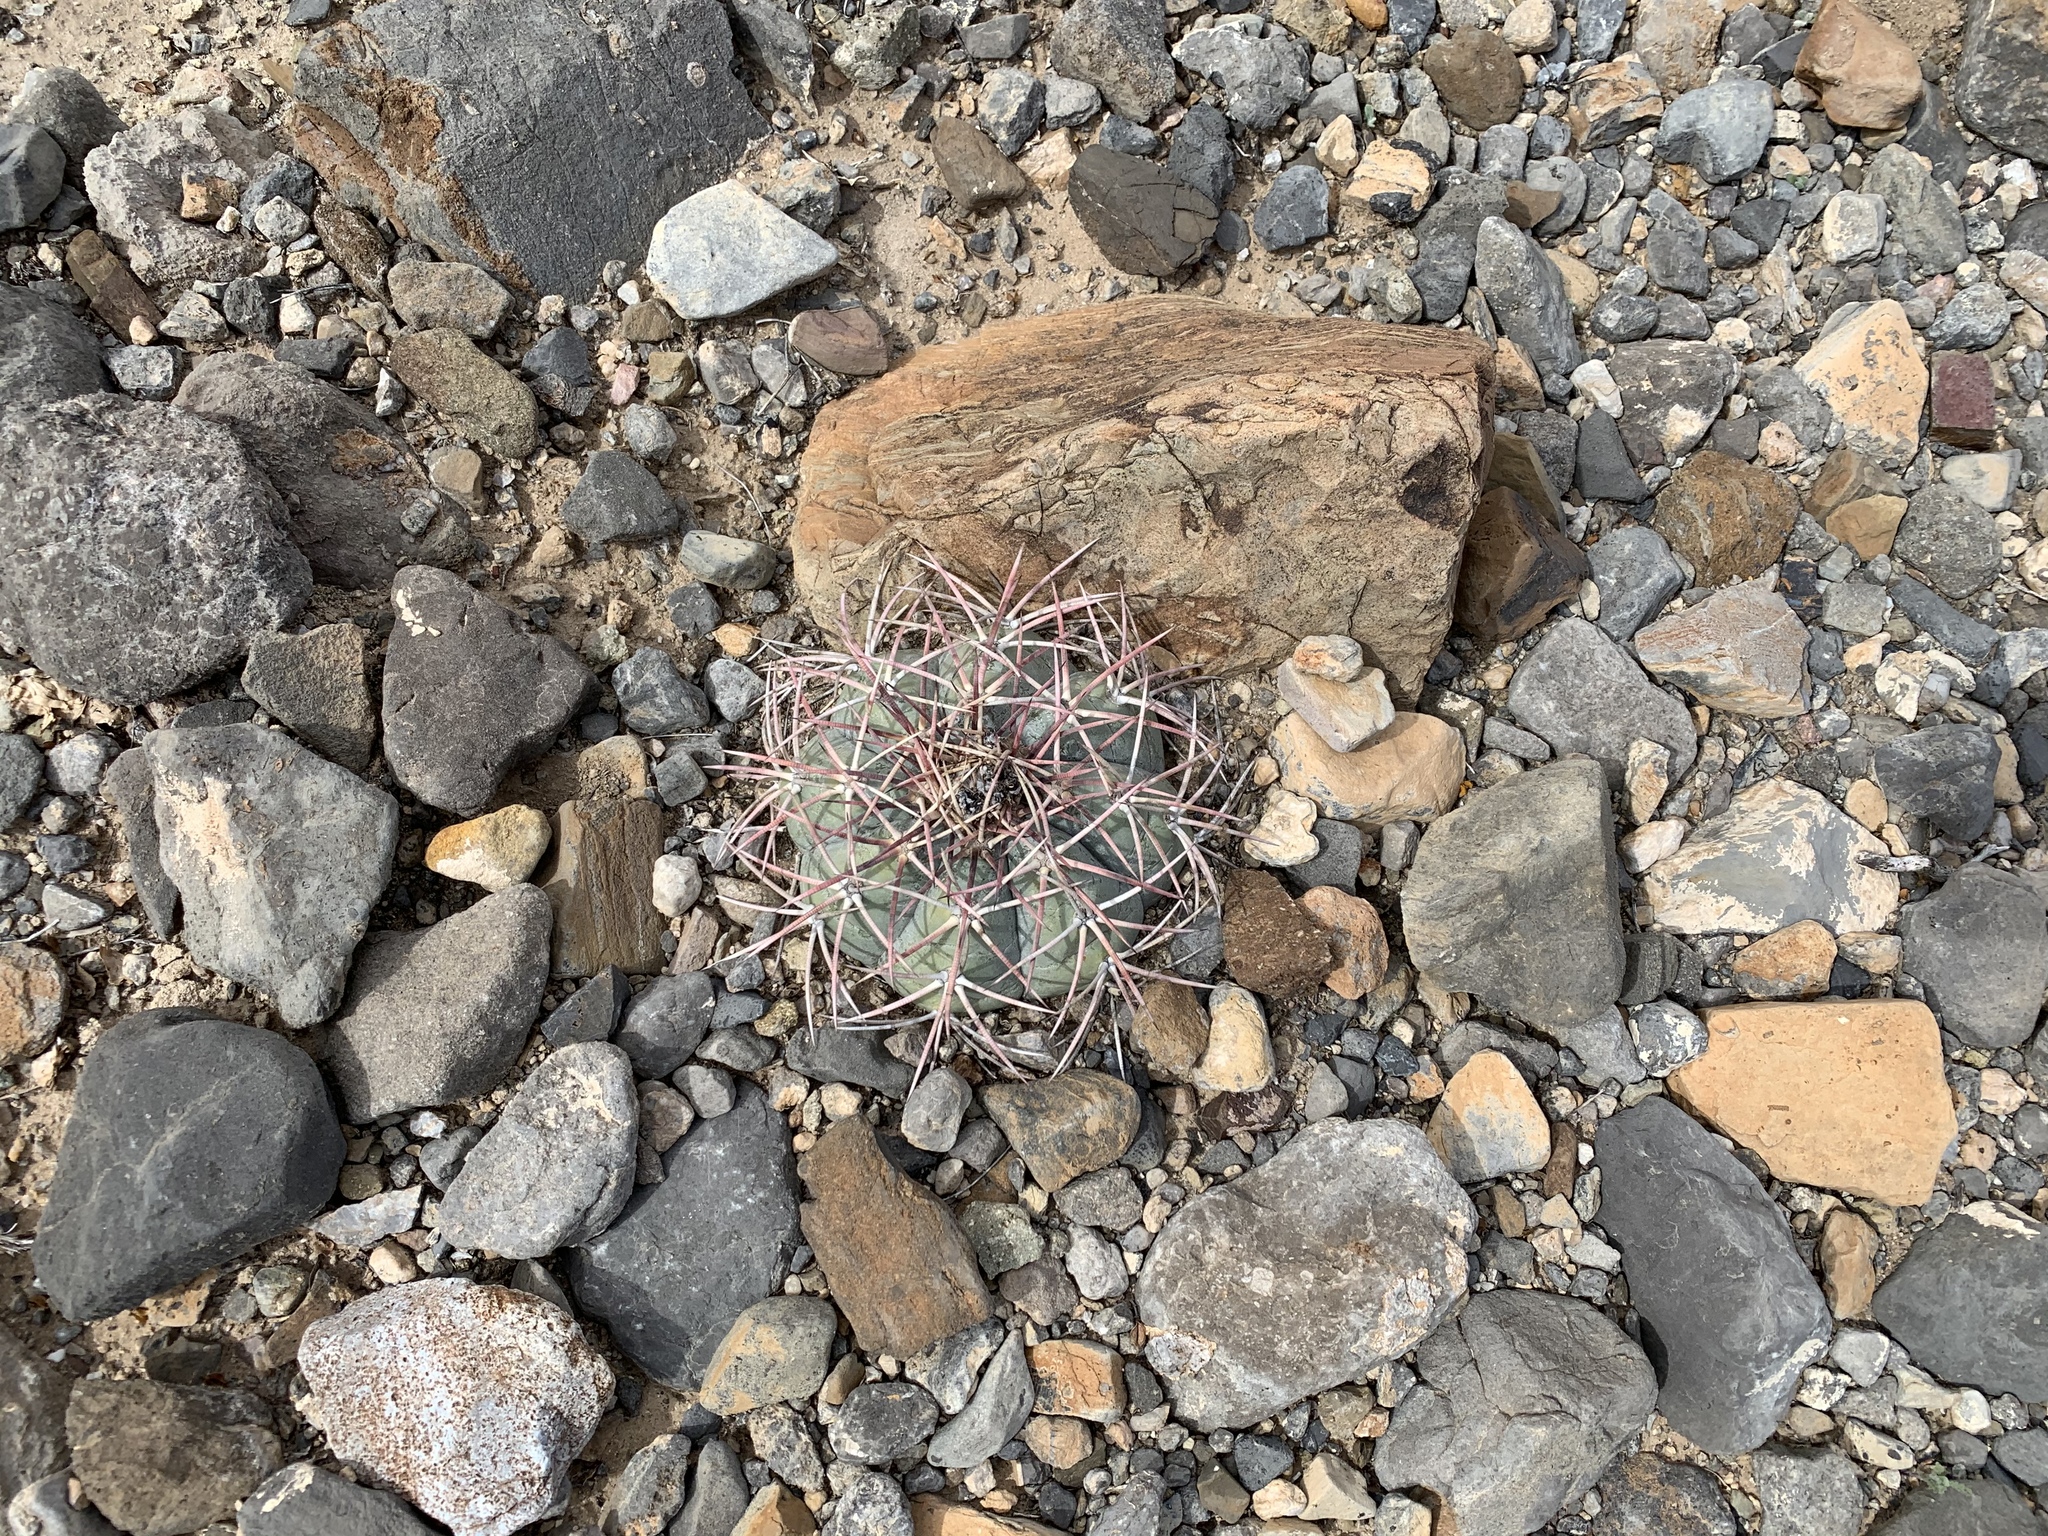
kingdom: Plantae
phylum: Tracheophyta
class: Magnoliopsida
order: Caryophyllales
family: Cactaceae
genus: Echinocactus
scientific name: Echinocactus horizonthalonius
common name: Devilshead
